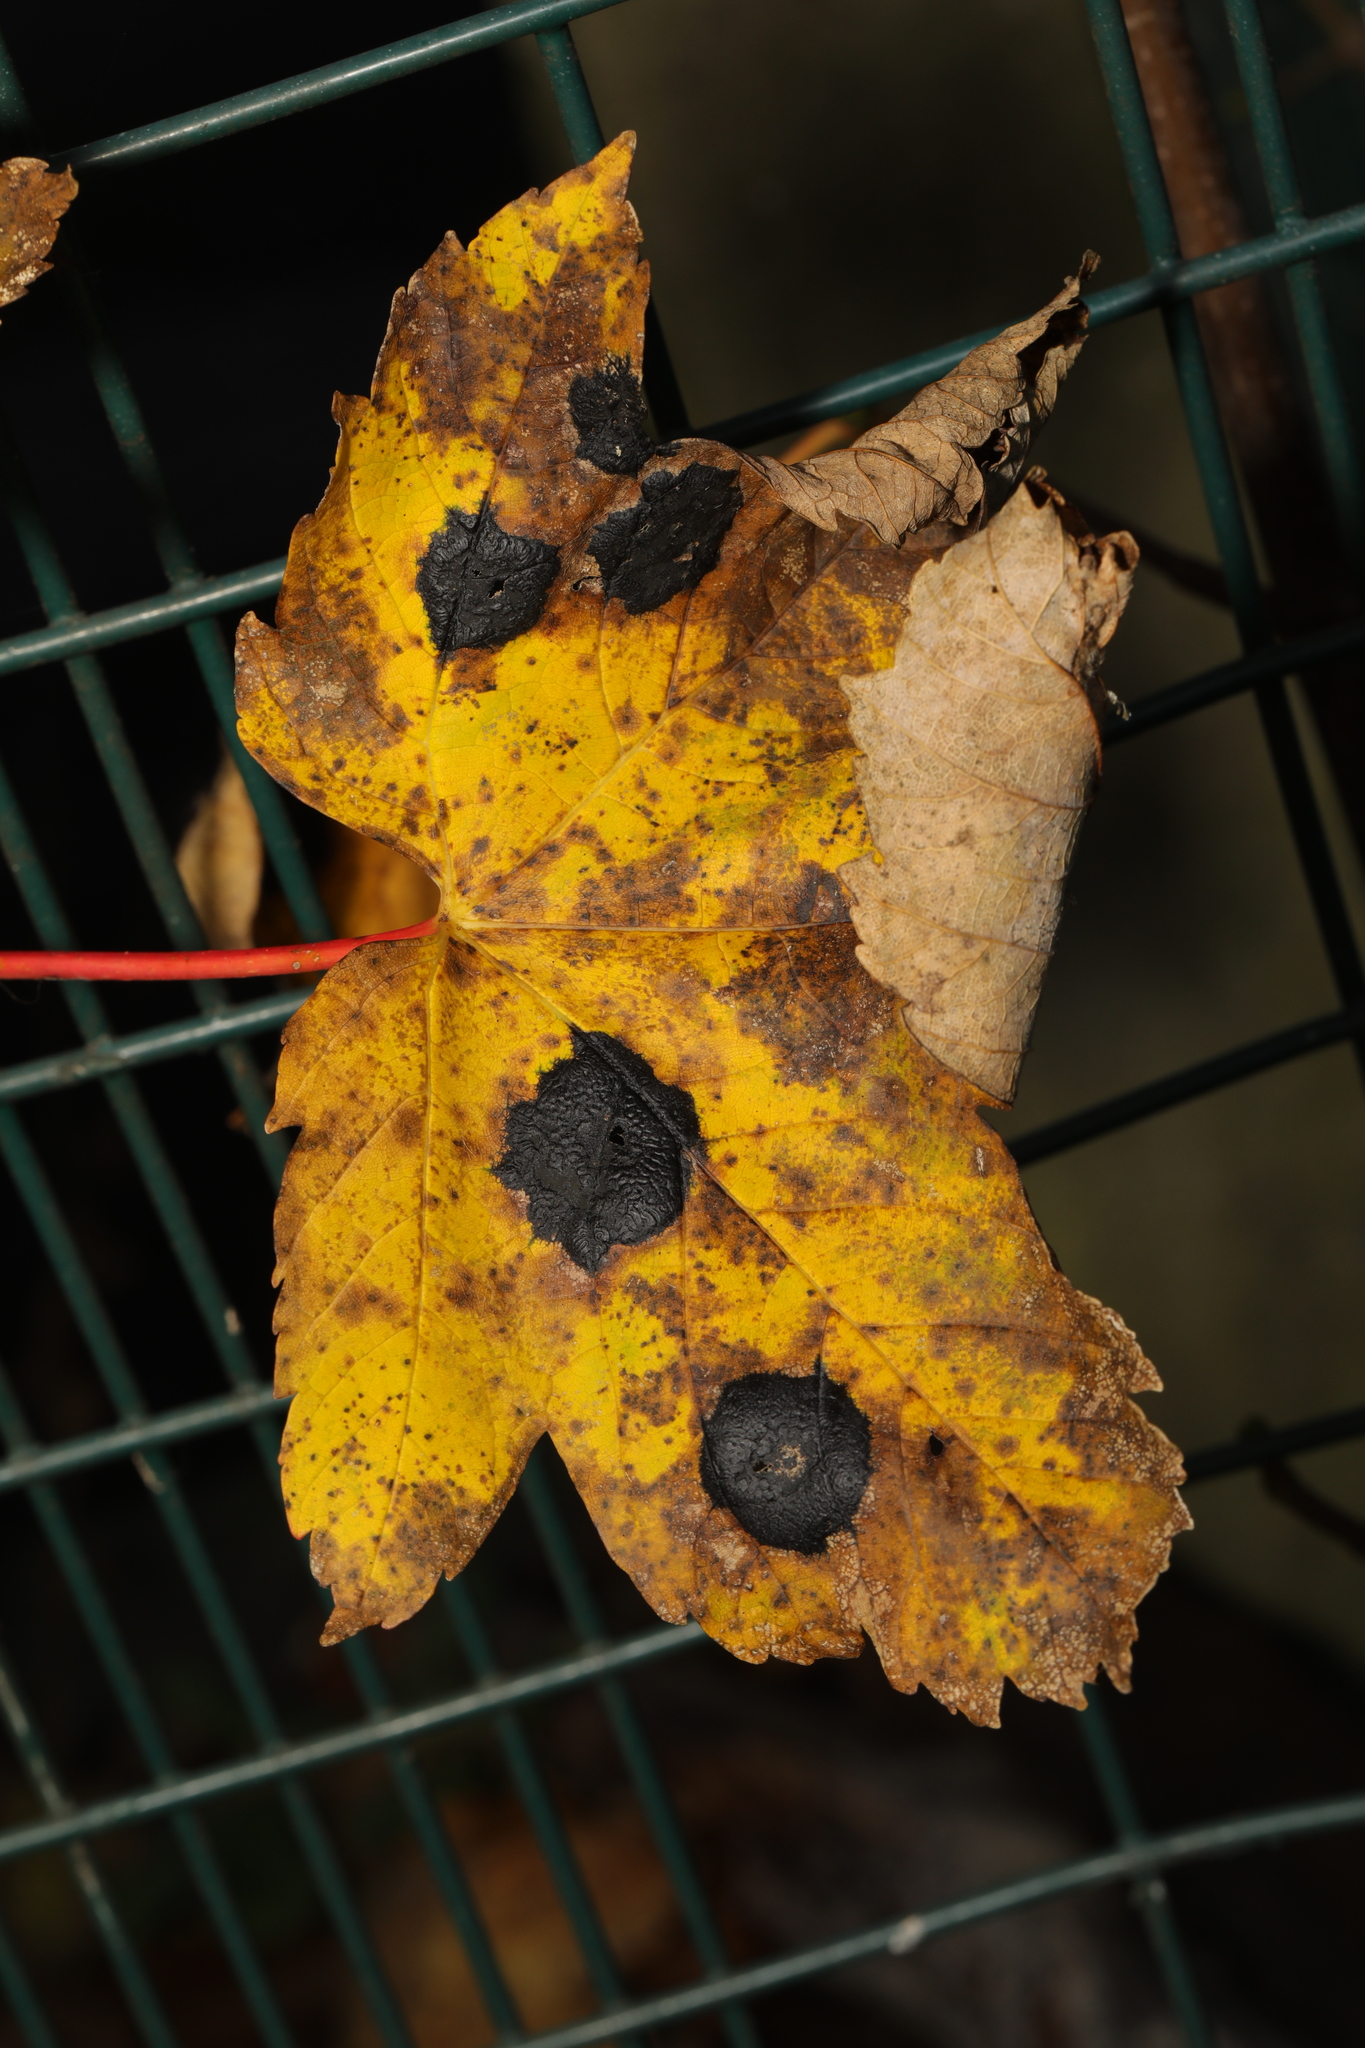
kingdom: Fungi
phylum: Ascomycota
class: Leotiomycetes
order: Rhytismatales
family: Rhytismataceae
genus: Rhytisma
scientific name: Rhytisma acerinum
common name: European tar spot
